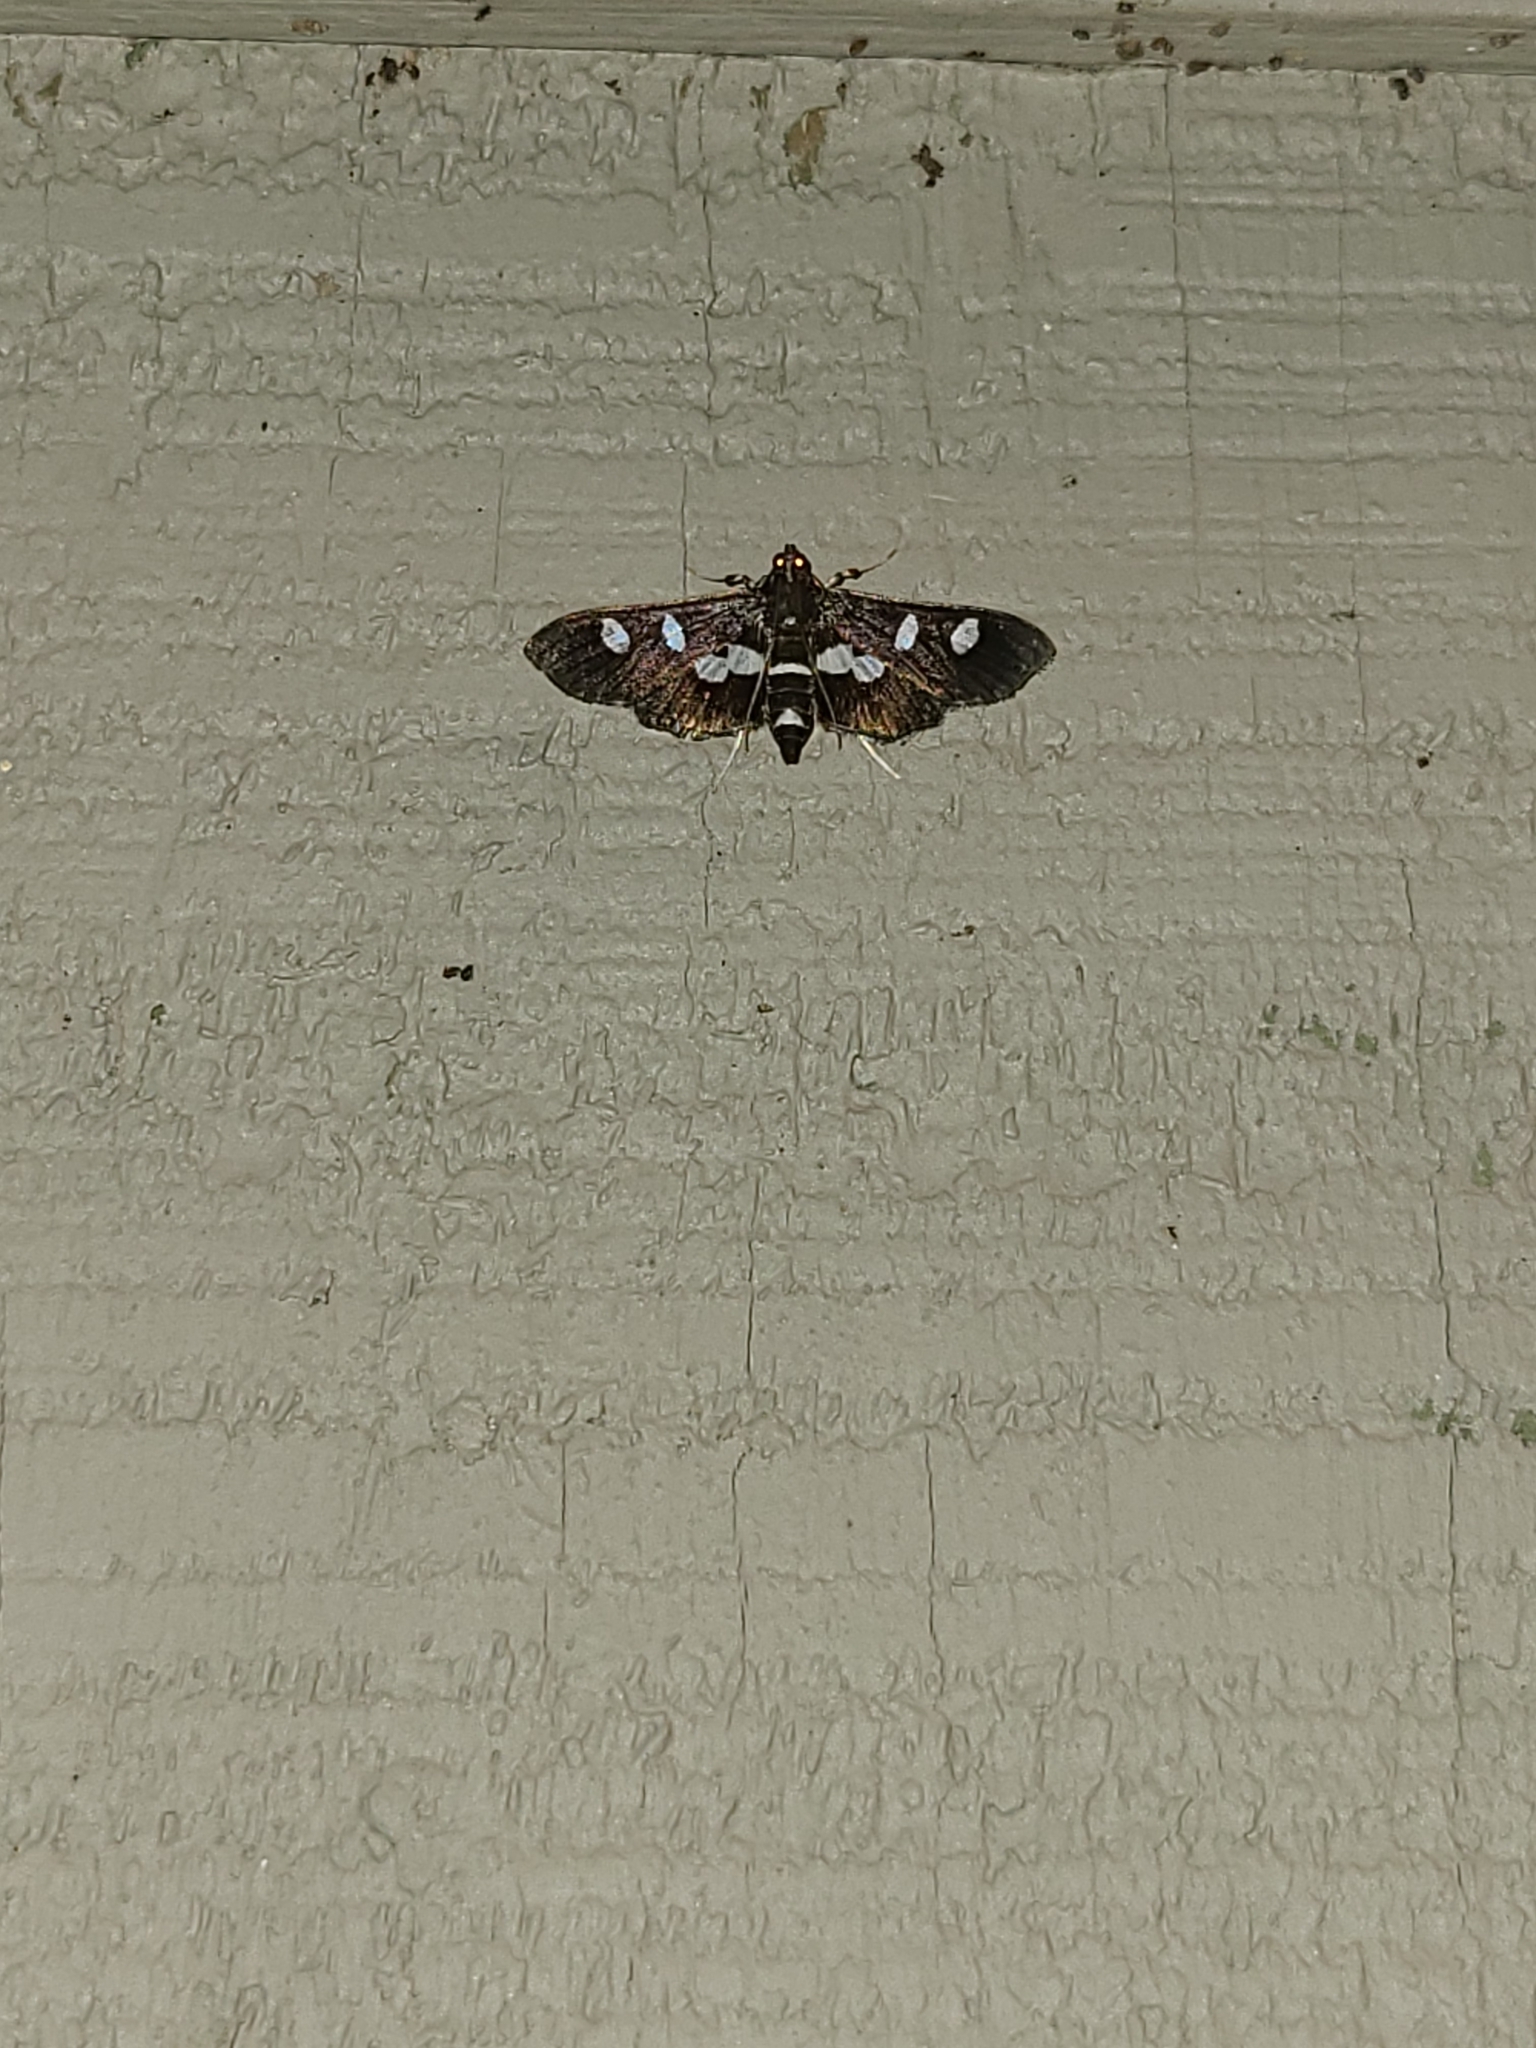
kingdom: Animalia
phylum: Arthropoda
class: Insecta
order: Lepidoptera
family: Crambidae
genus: Desmia
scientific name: Desmia
